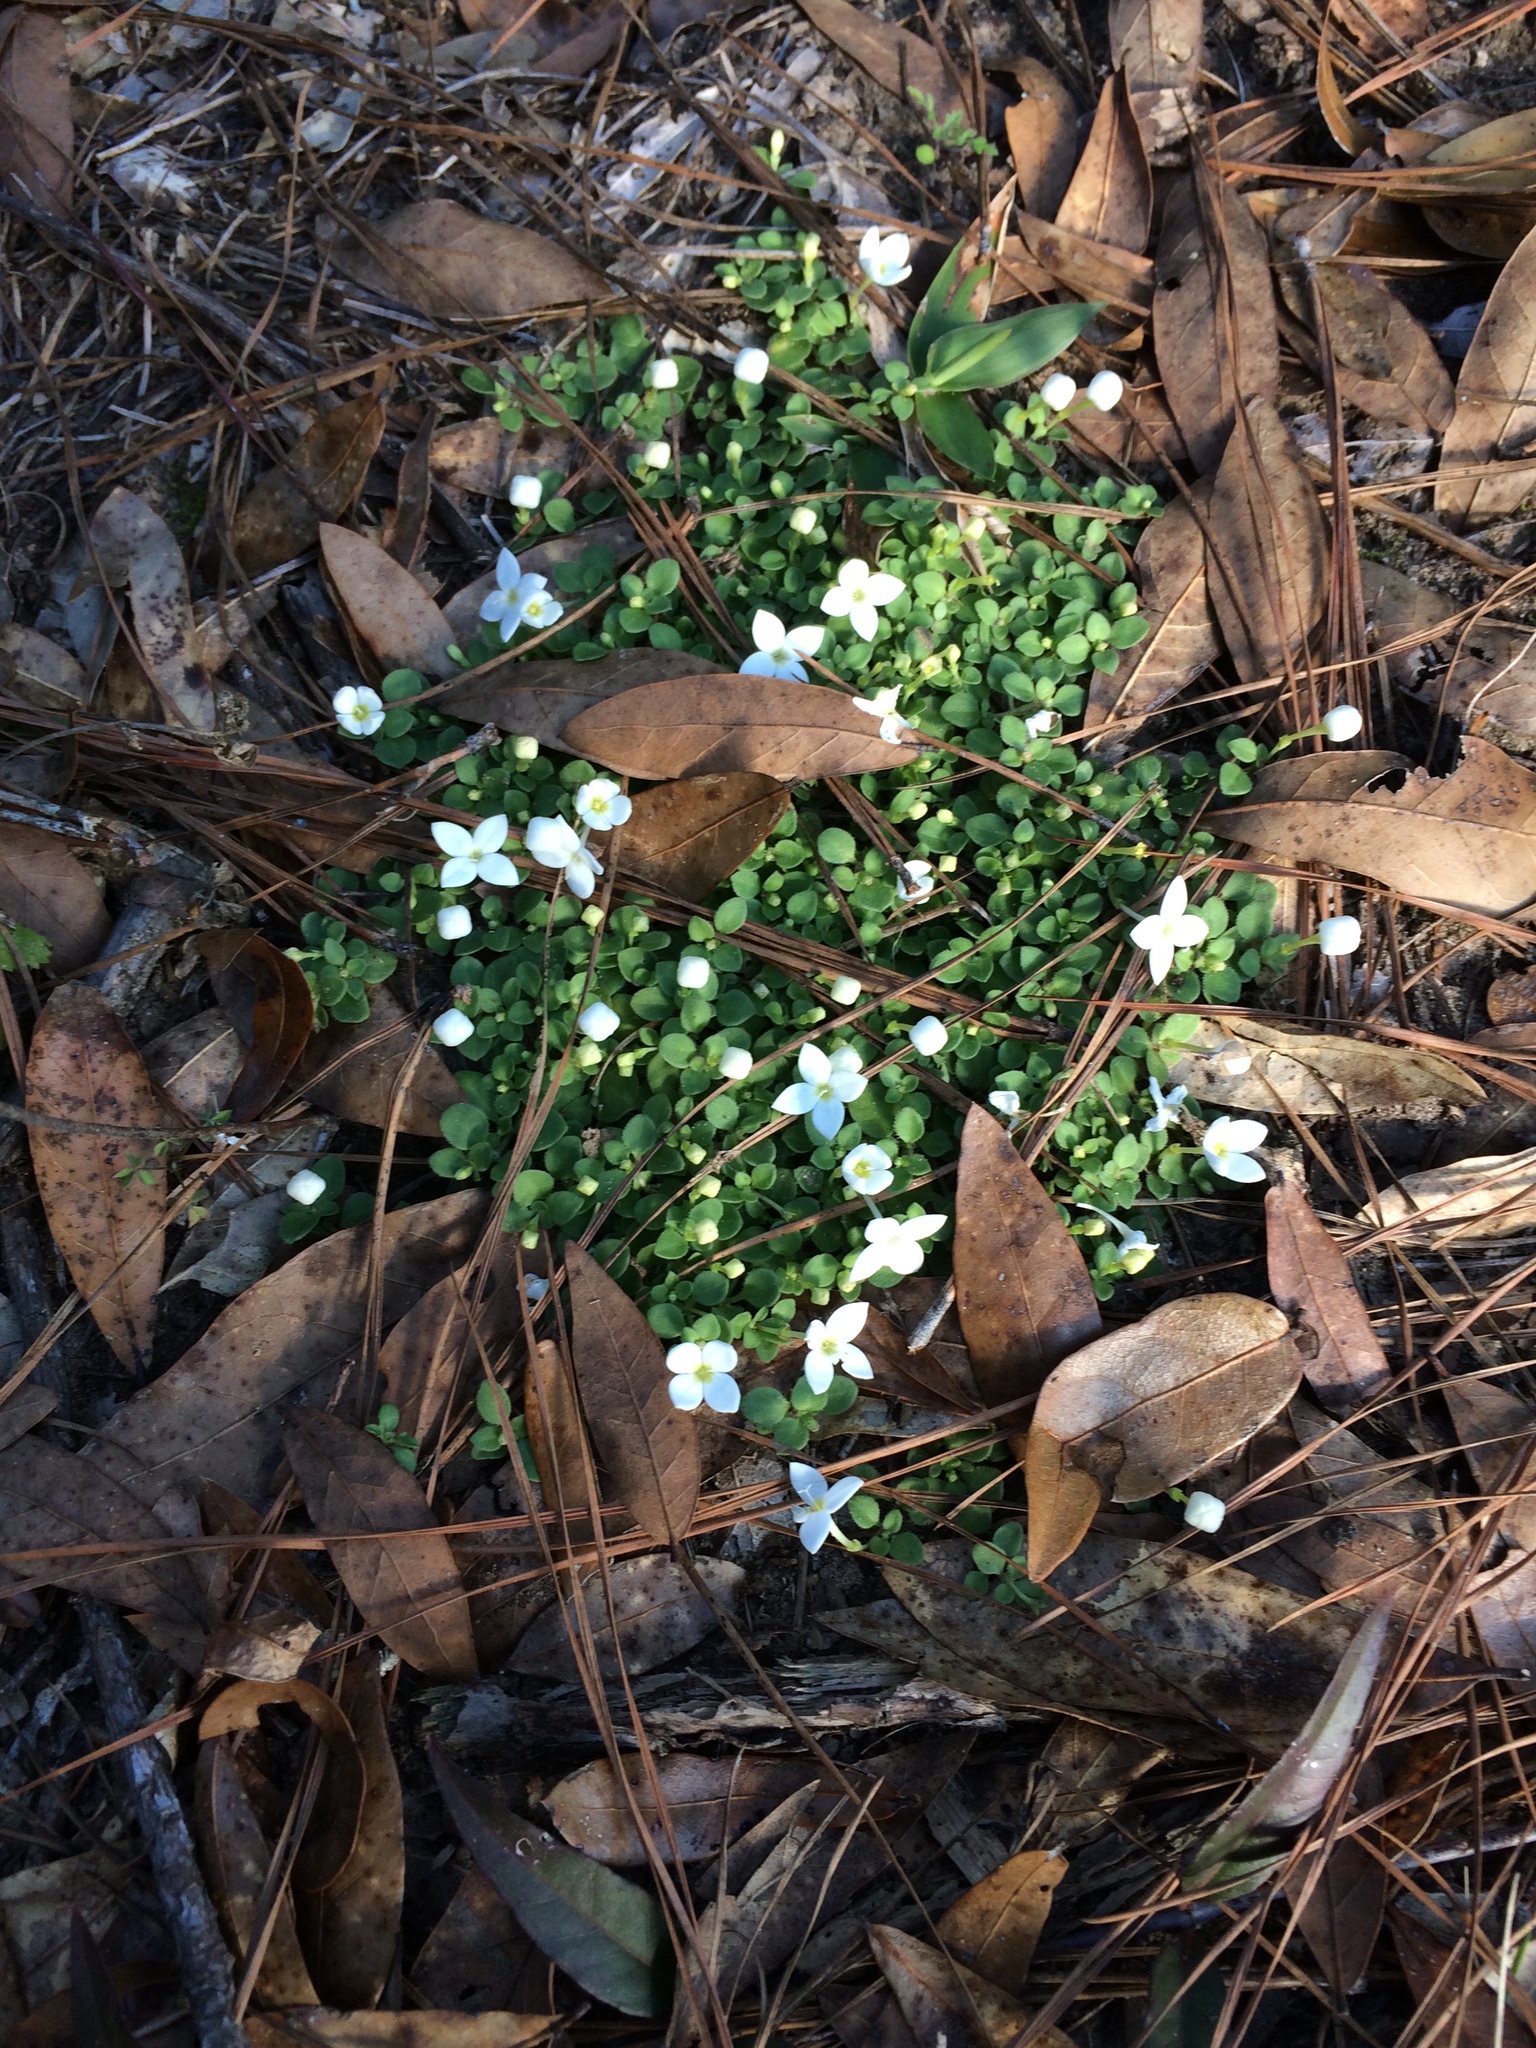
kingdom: Plantae
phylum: Tracheophyta
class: Magnoliopsida
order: Gentianales
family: Rubiaceae
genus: Houstonia
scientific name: Houstonia procumbens
